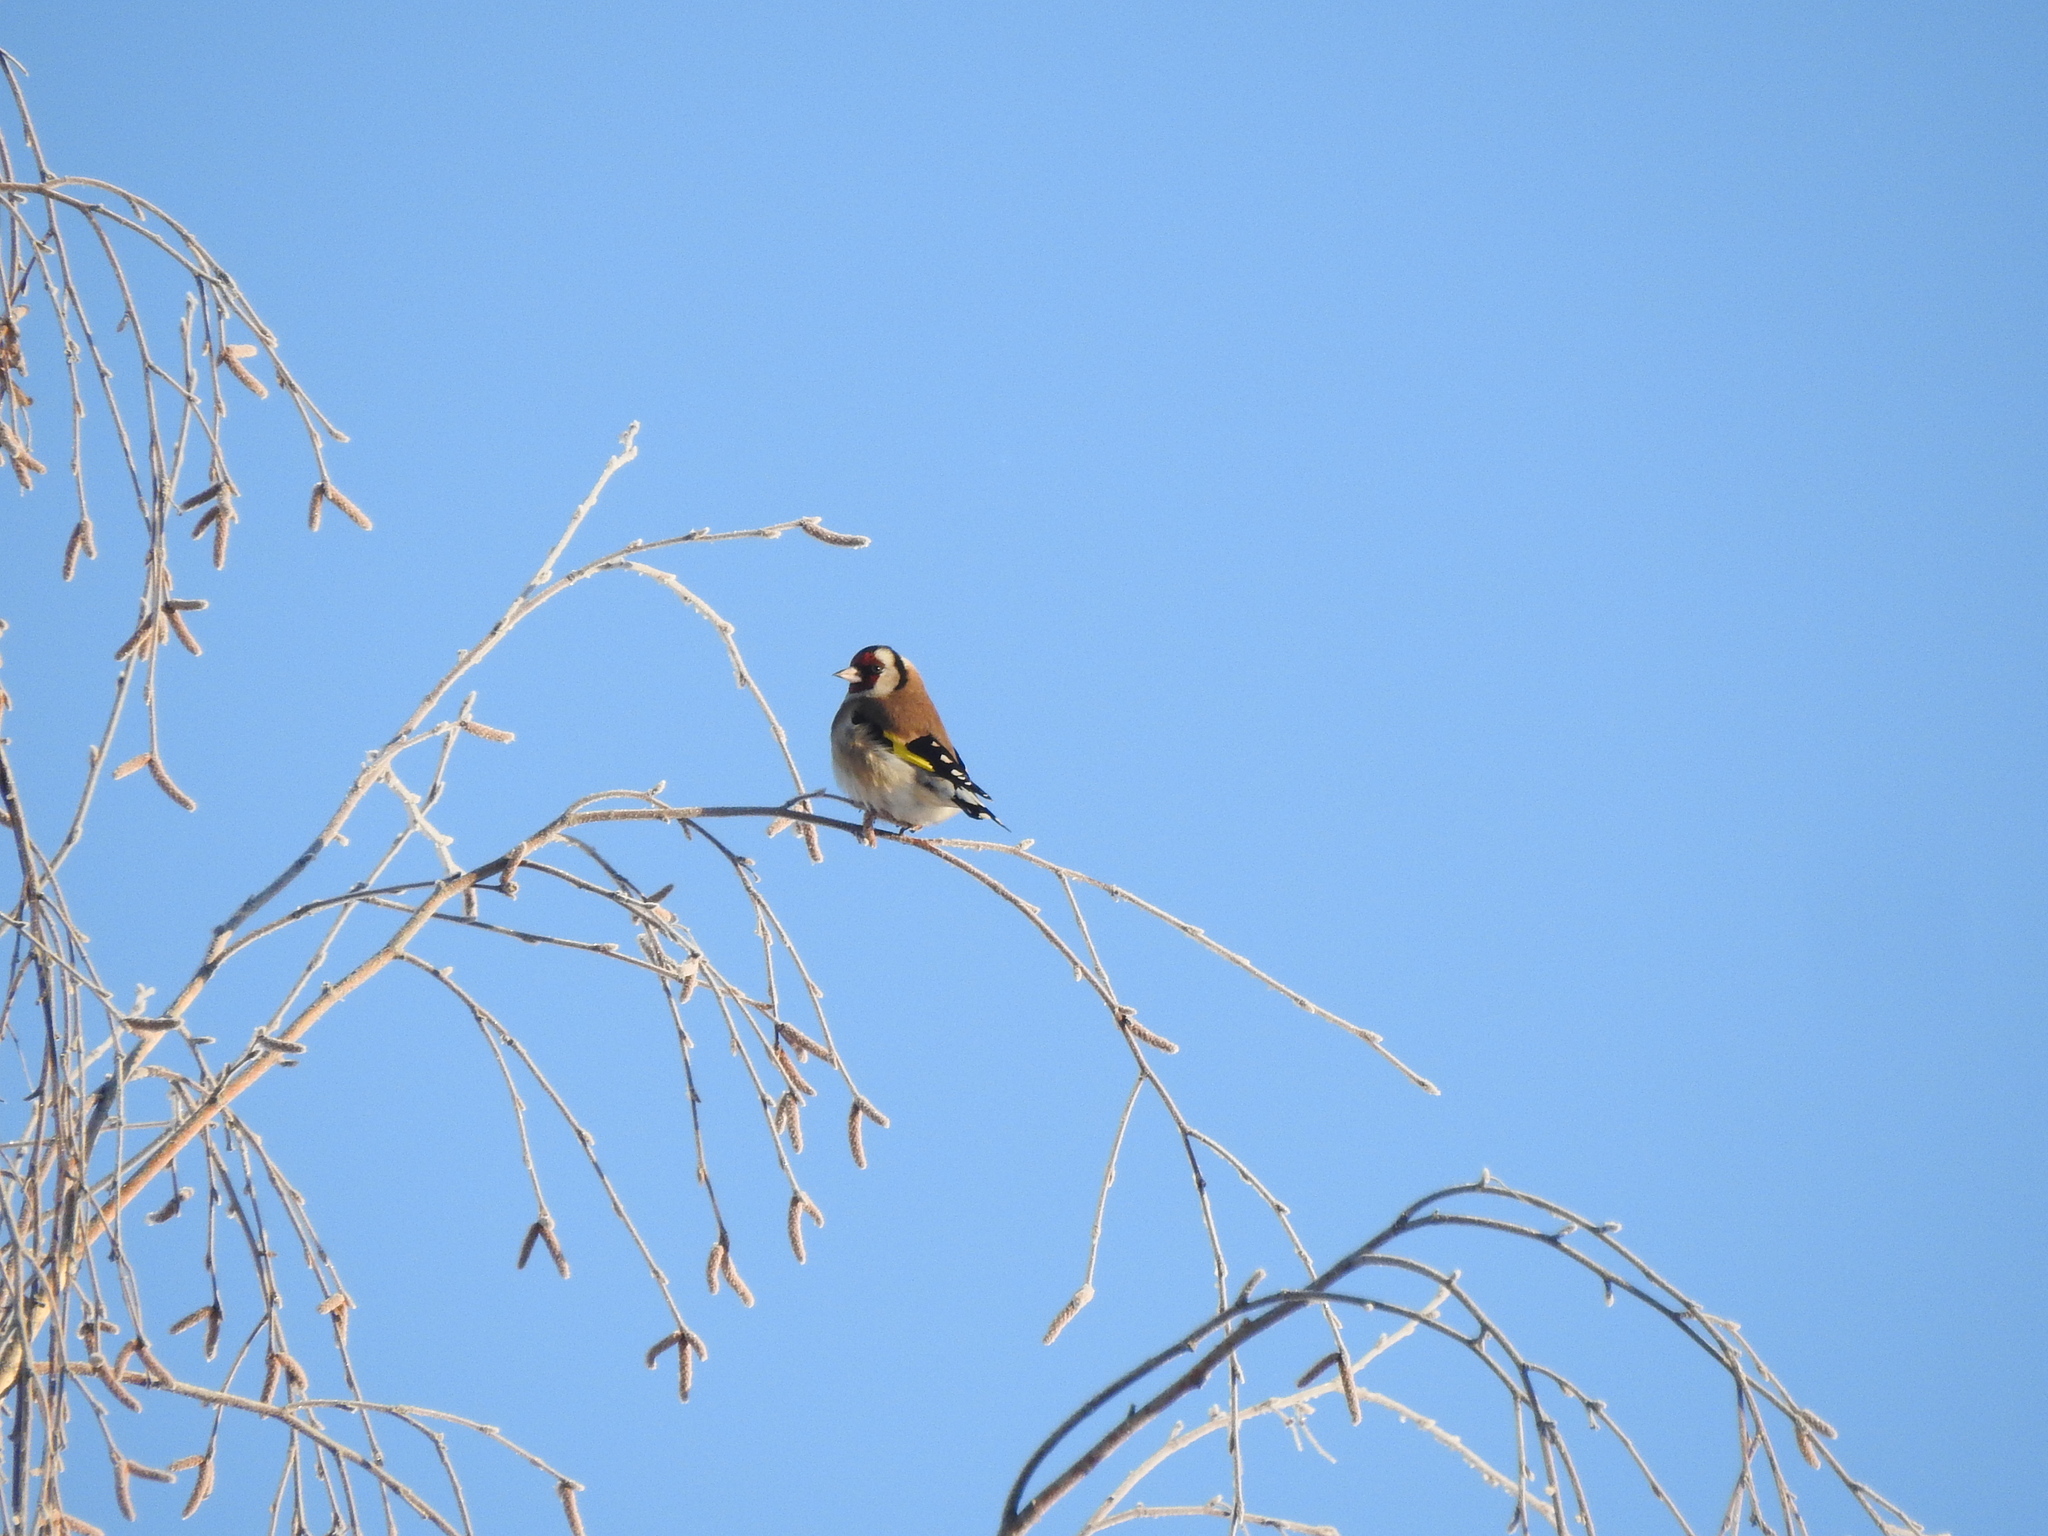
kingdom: Animalia
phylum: Chordata
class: Aves
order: Passeriformes
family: Fringillidae
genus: Carduelis
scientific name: Carduelis carduelis
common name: European goldfinch
